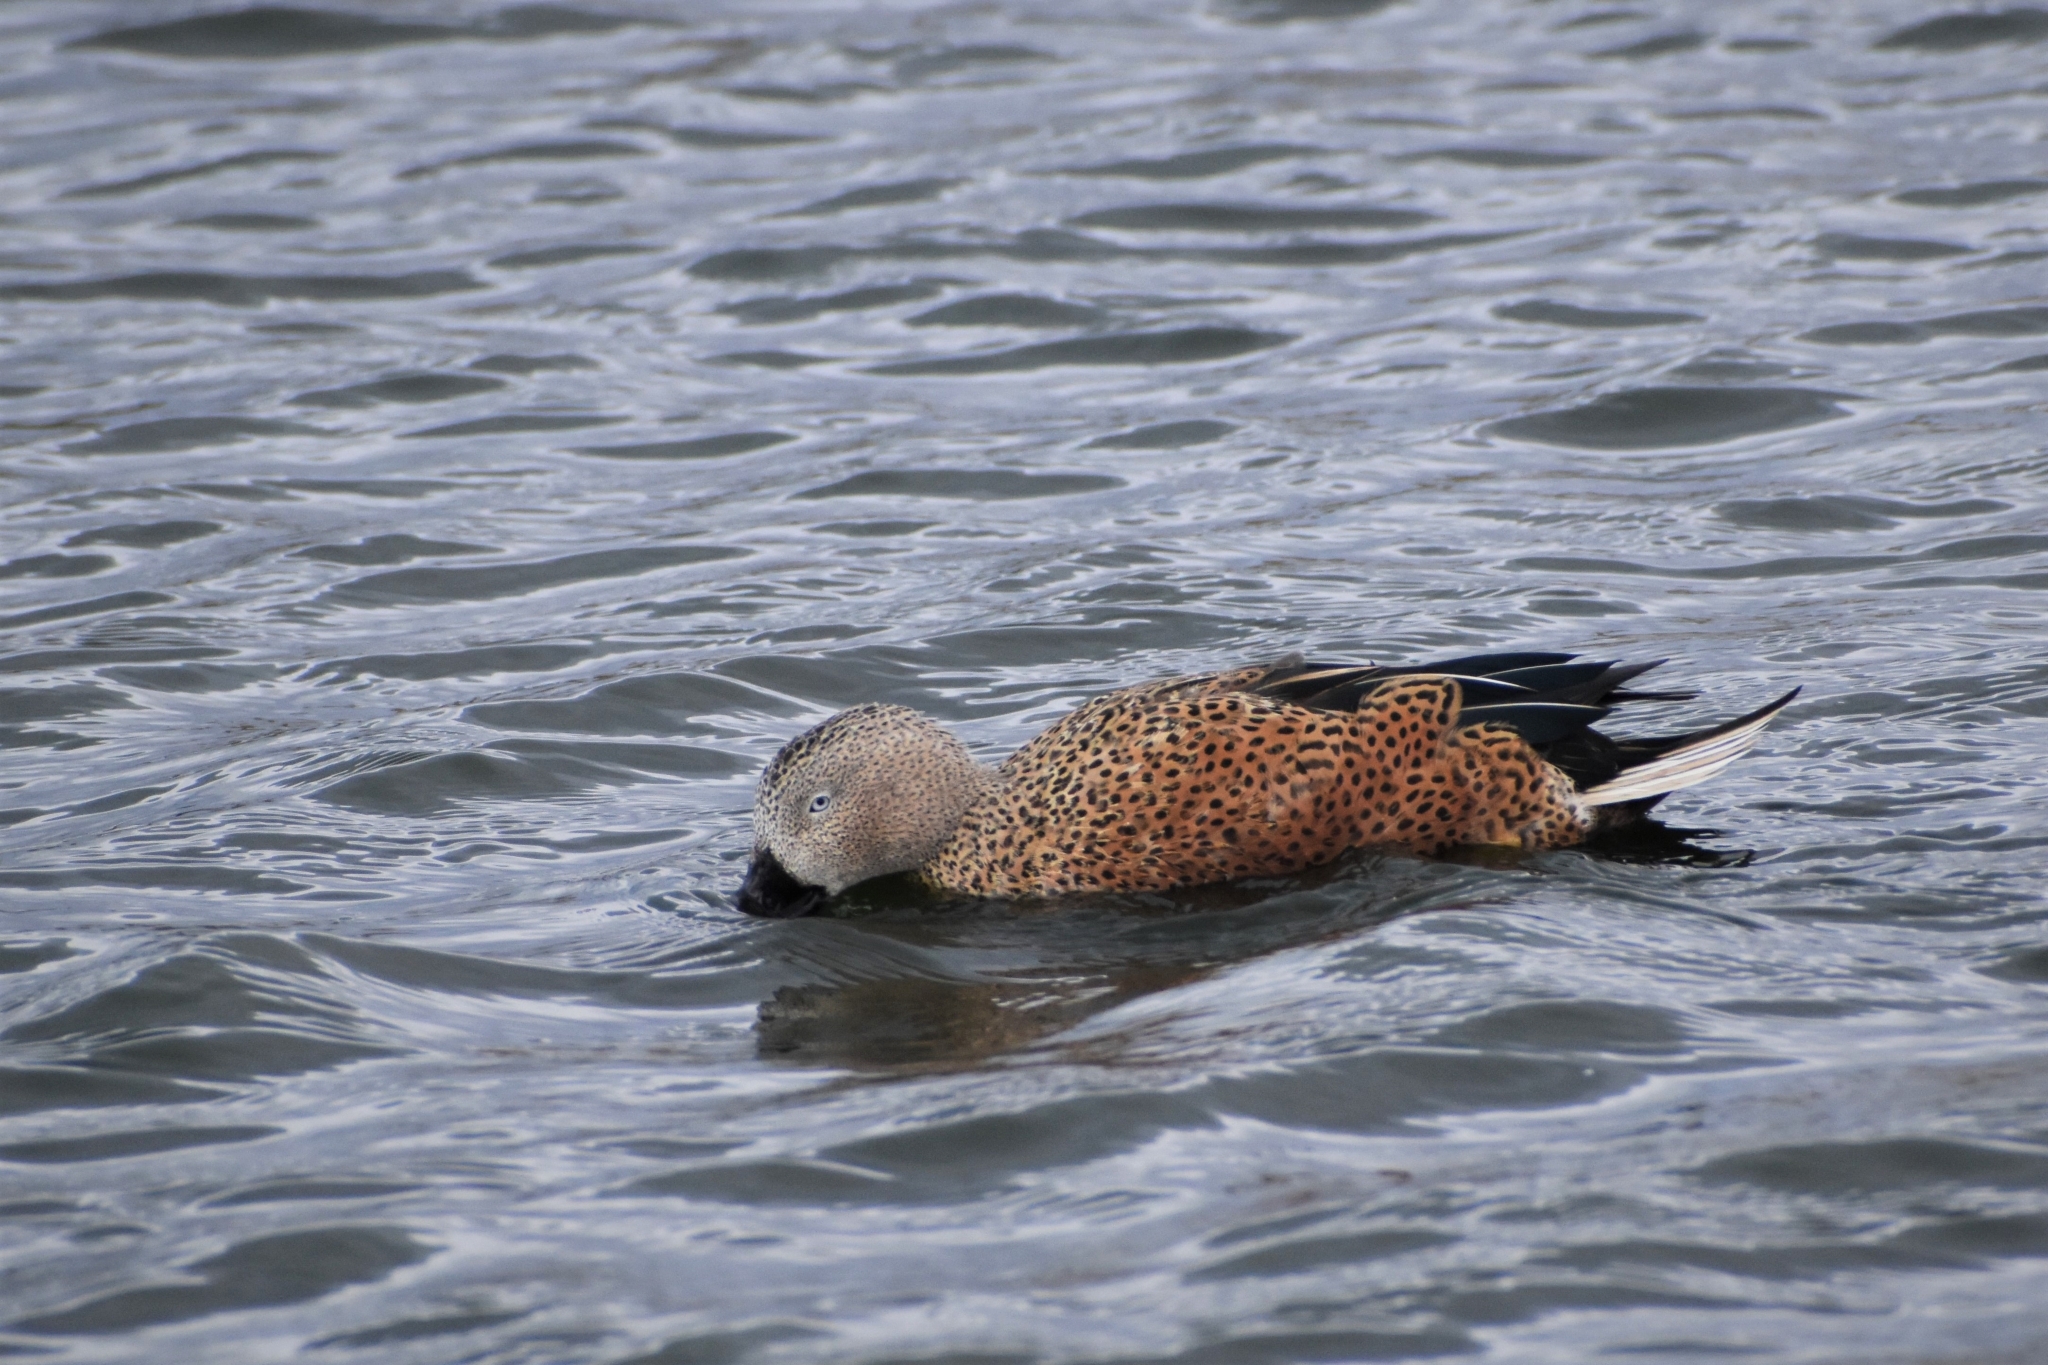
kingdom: Animalia
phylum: Chordata
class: Aves
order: Anseriformes
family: Anatidae
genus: Spatula
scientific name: Spatula platalea
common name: Red shoveler
